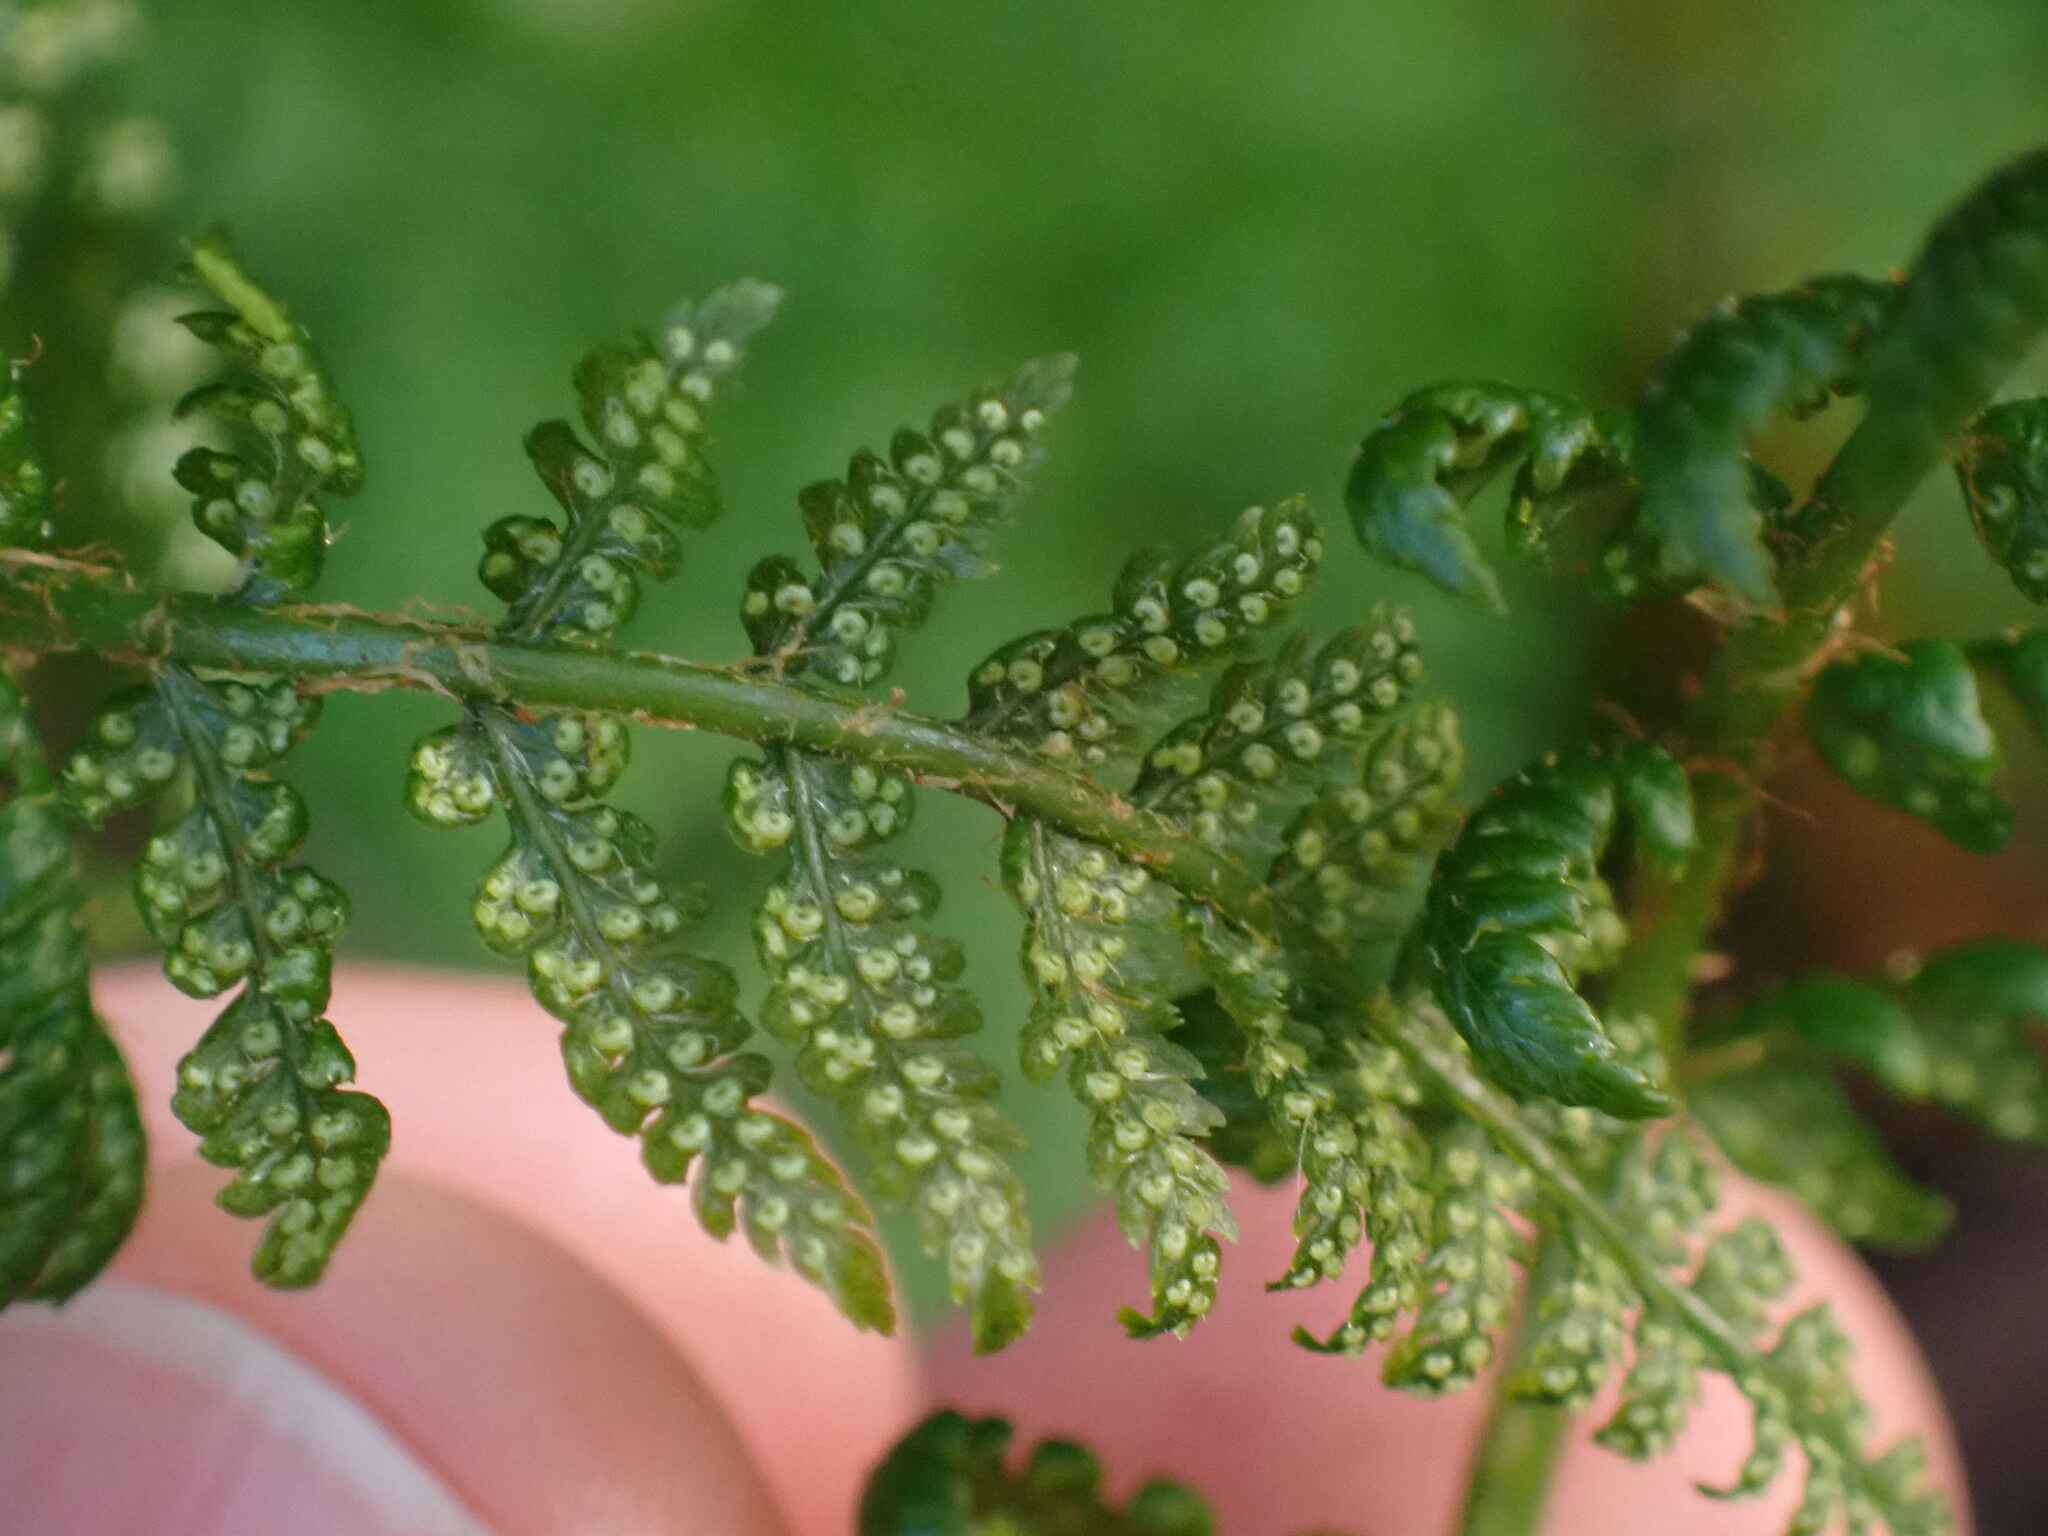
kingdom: Plantae
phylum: Tracheophyta
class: Polypodiopsida
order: Polypodiales
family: Dryopteridaceae
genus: Dryopteris
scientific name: Dryopteris expansa
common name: Northern buckler fern
